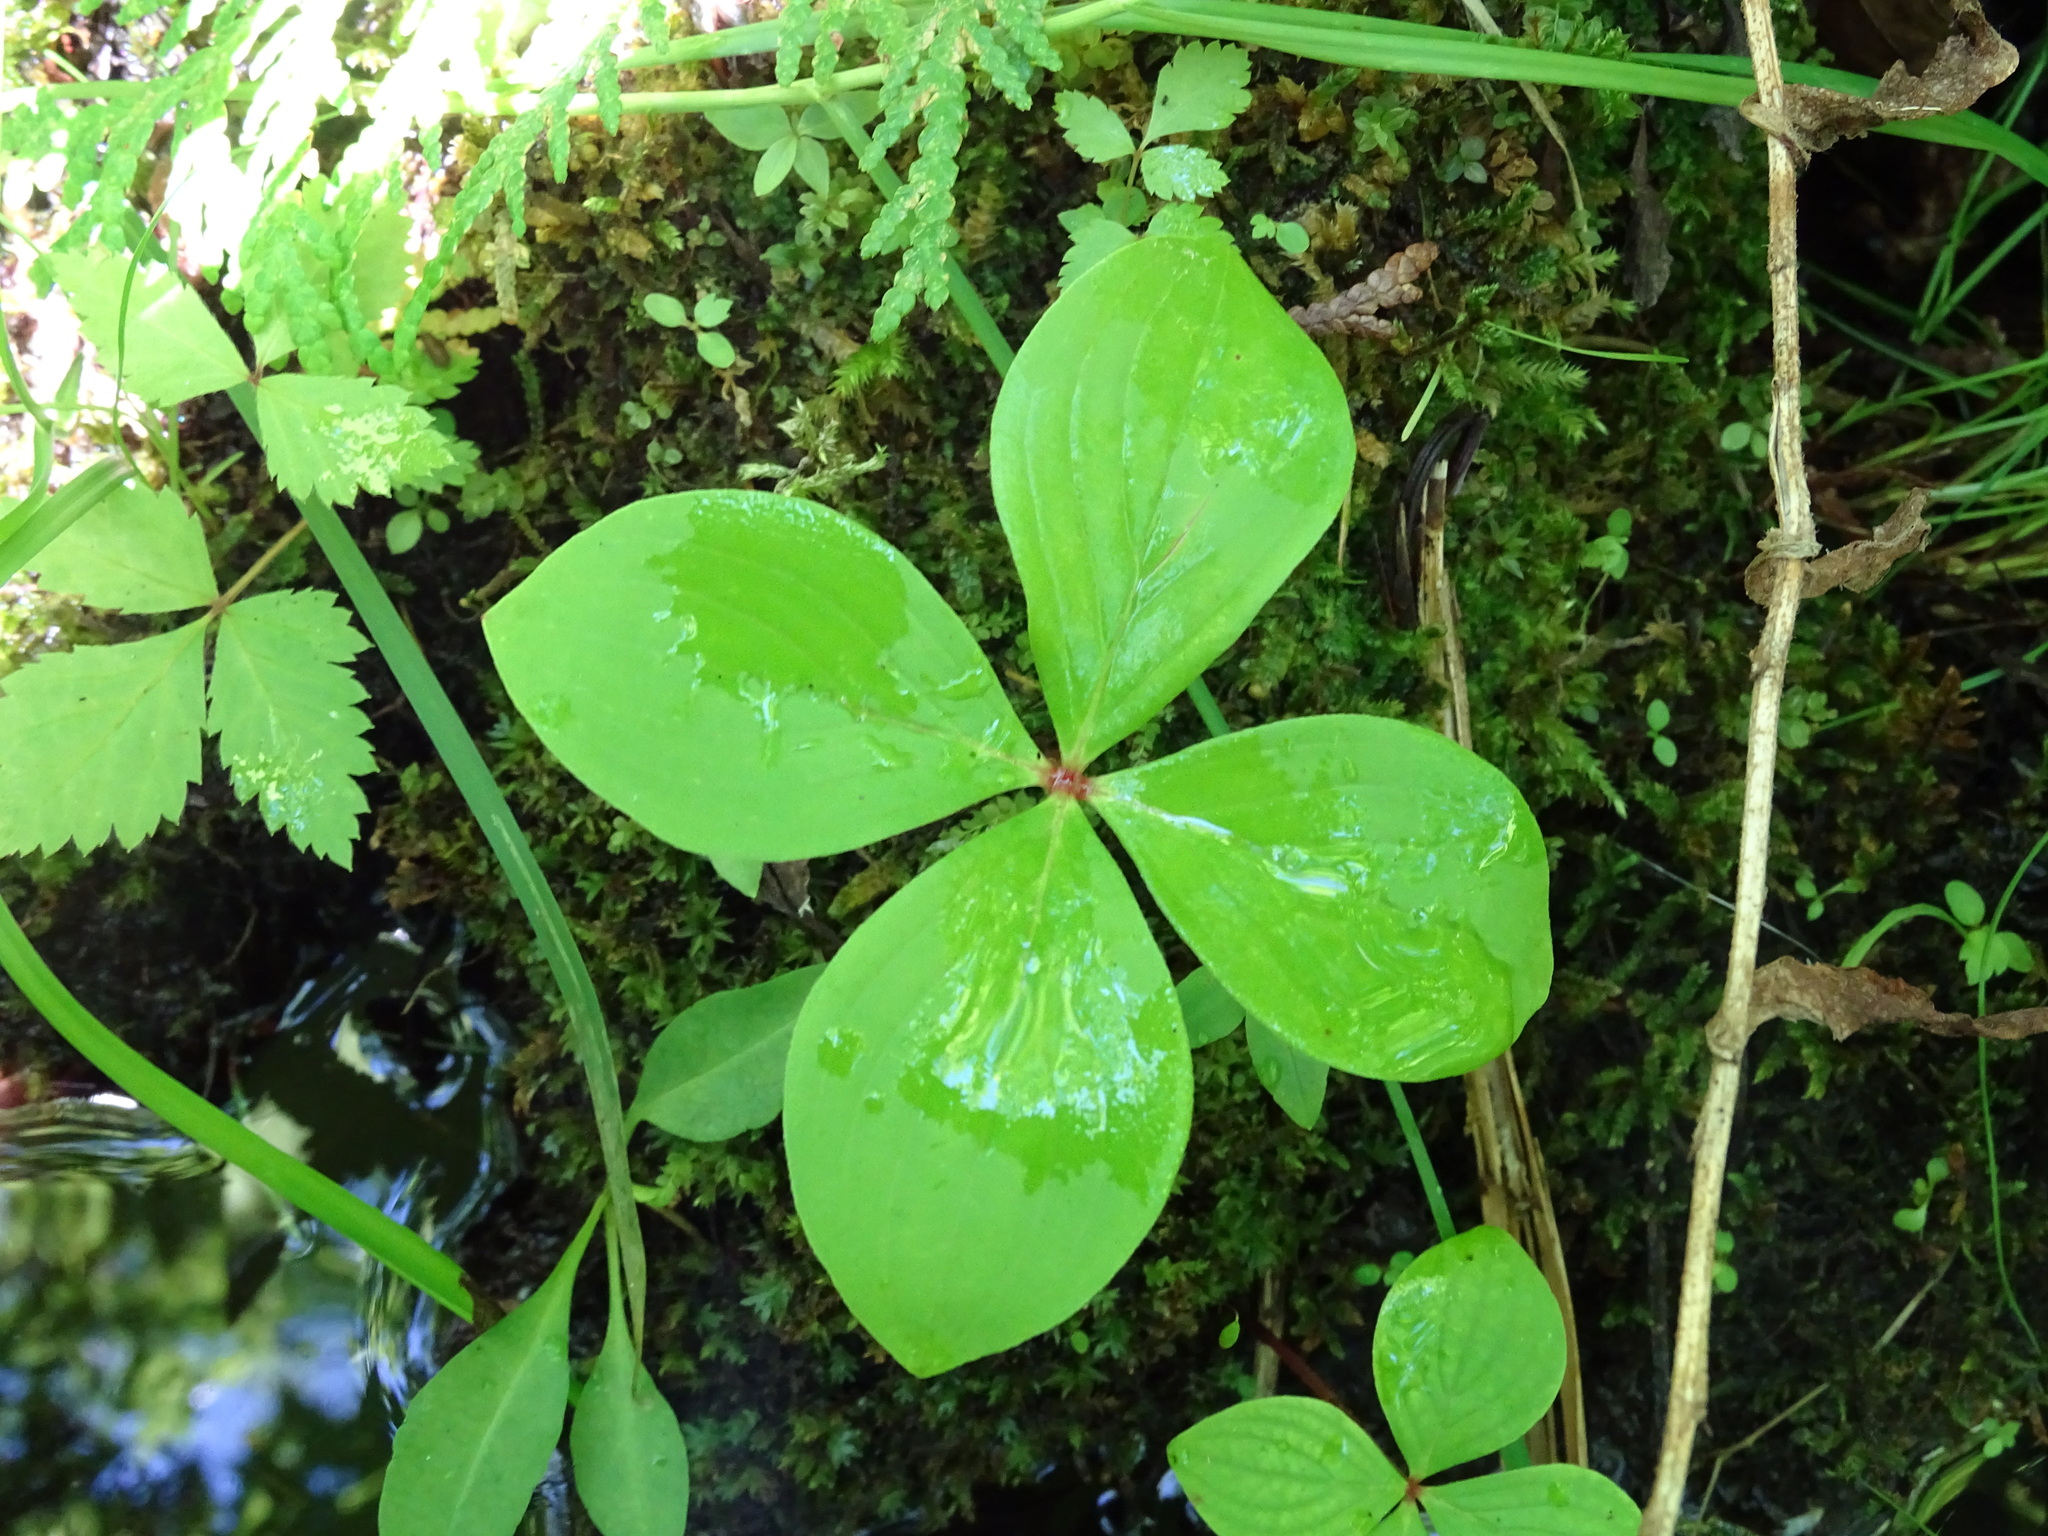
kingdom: Plantae
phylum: Tracheophyta
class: Magnoliopsida
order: Cornales
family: Cornaceae
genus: Cornus
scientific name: Cornus canadensis
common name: Creeping dogwood
